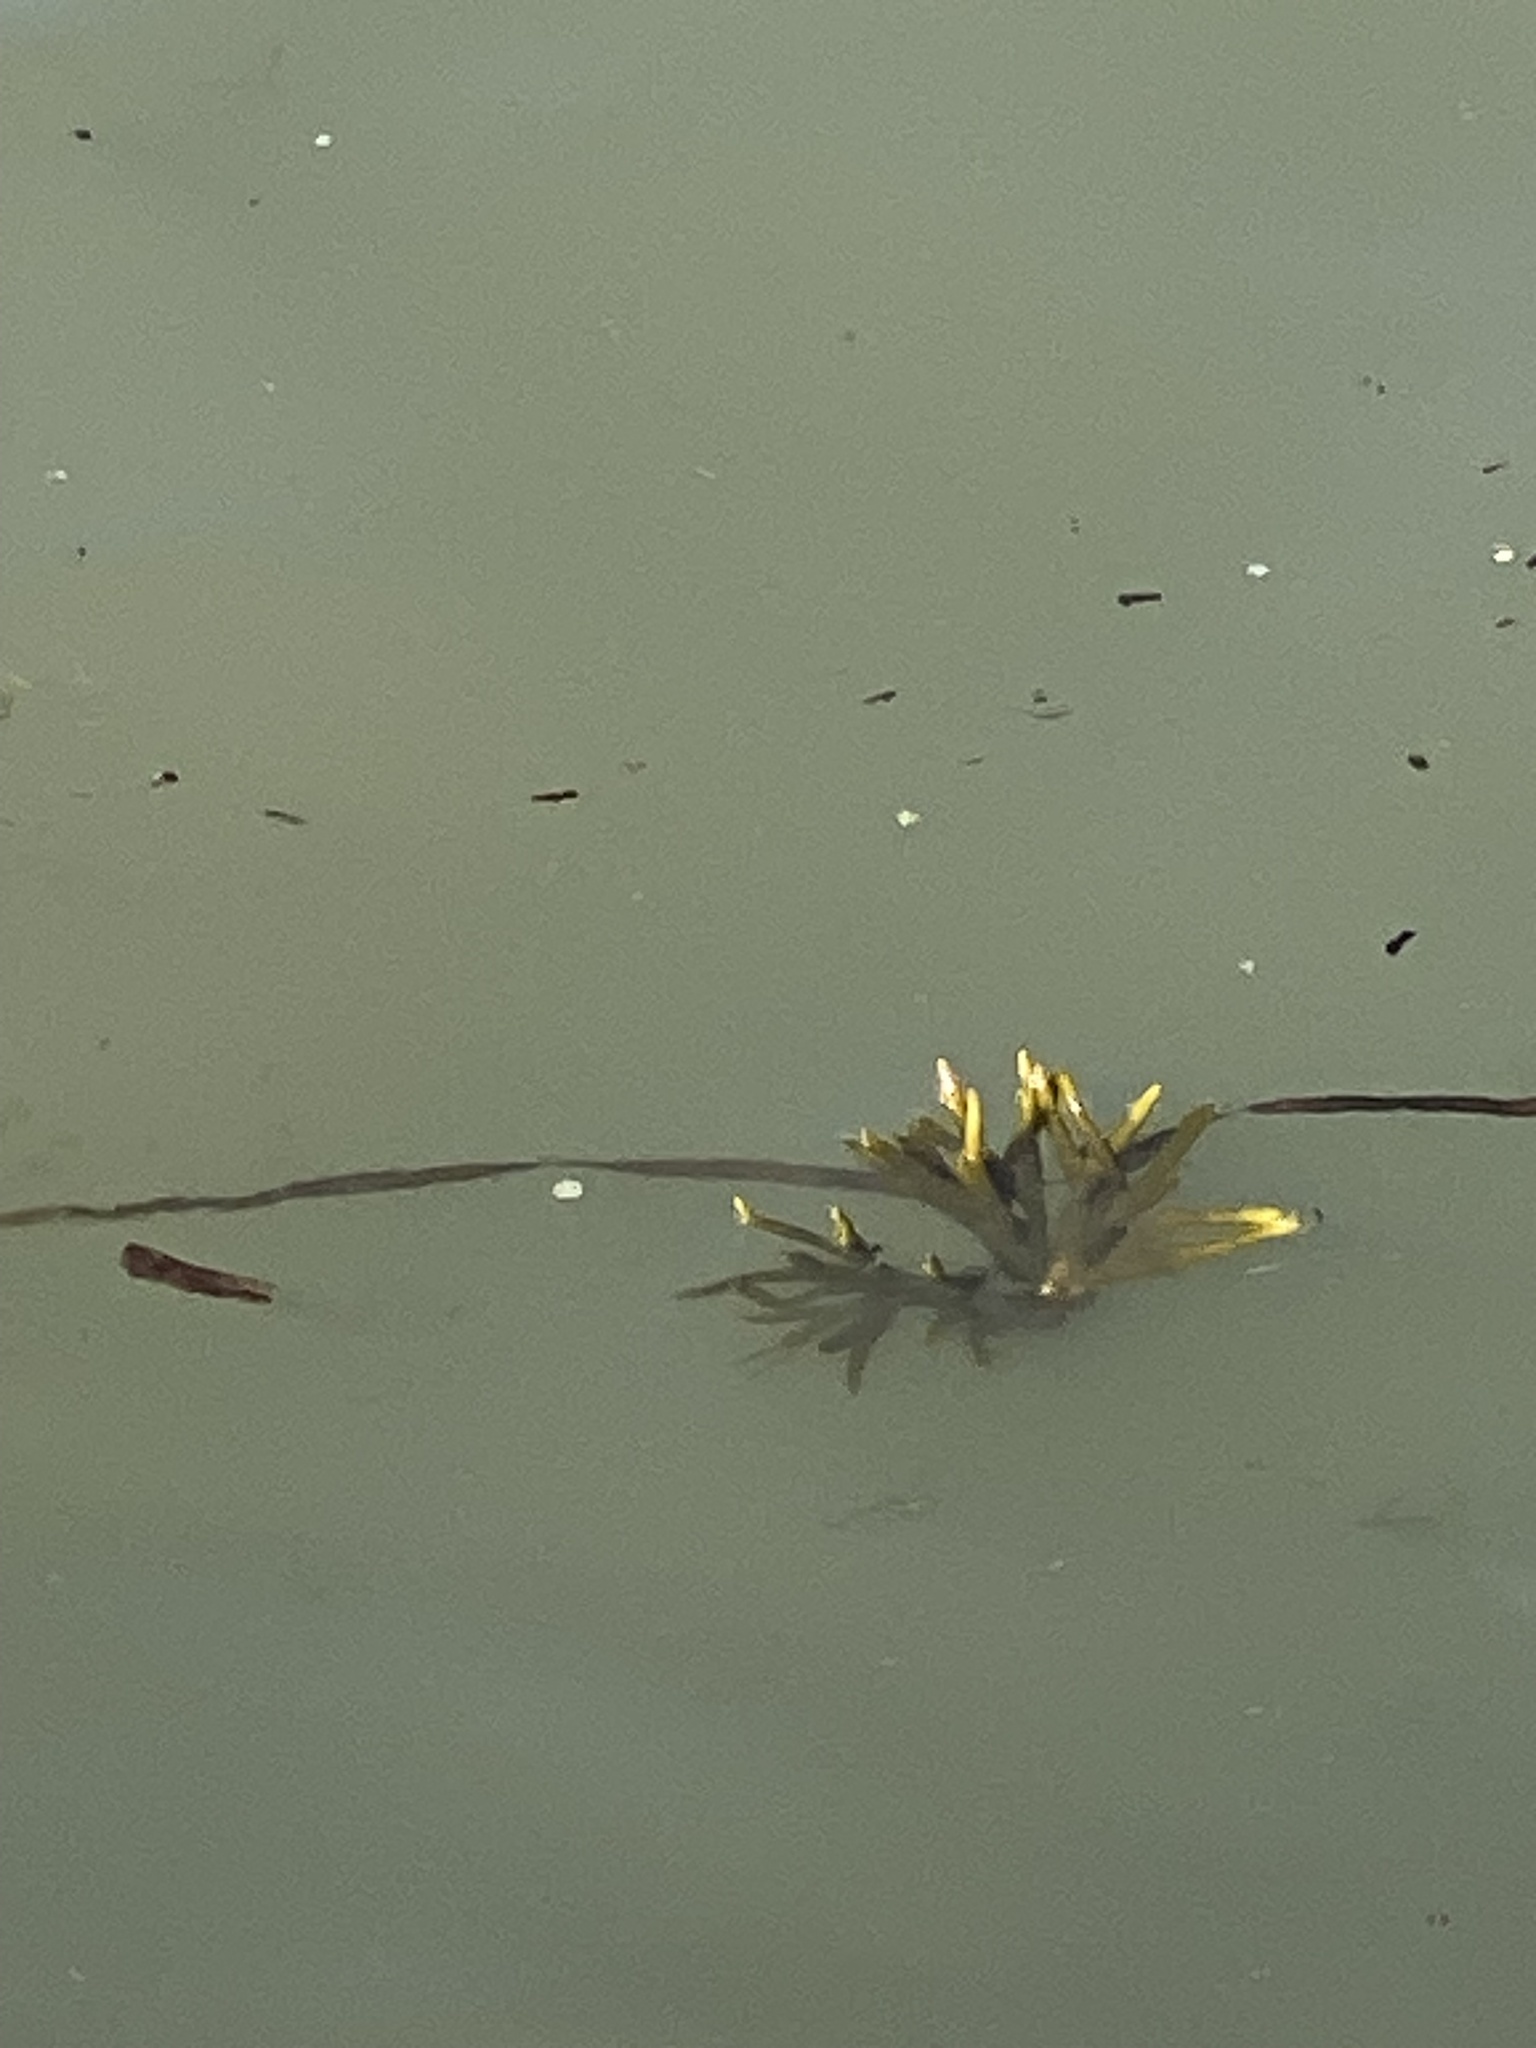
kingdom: Chromista
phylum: Ochrophyta
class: Phaeophyceae
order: Fucales
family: Fucaceae
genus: Fucus
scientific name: Fucus distichus
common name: Rockweed
